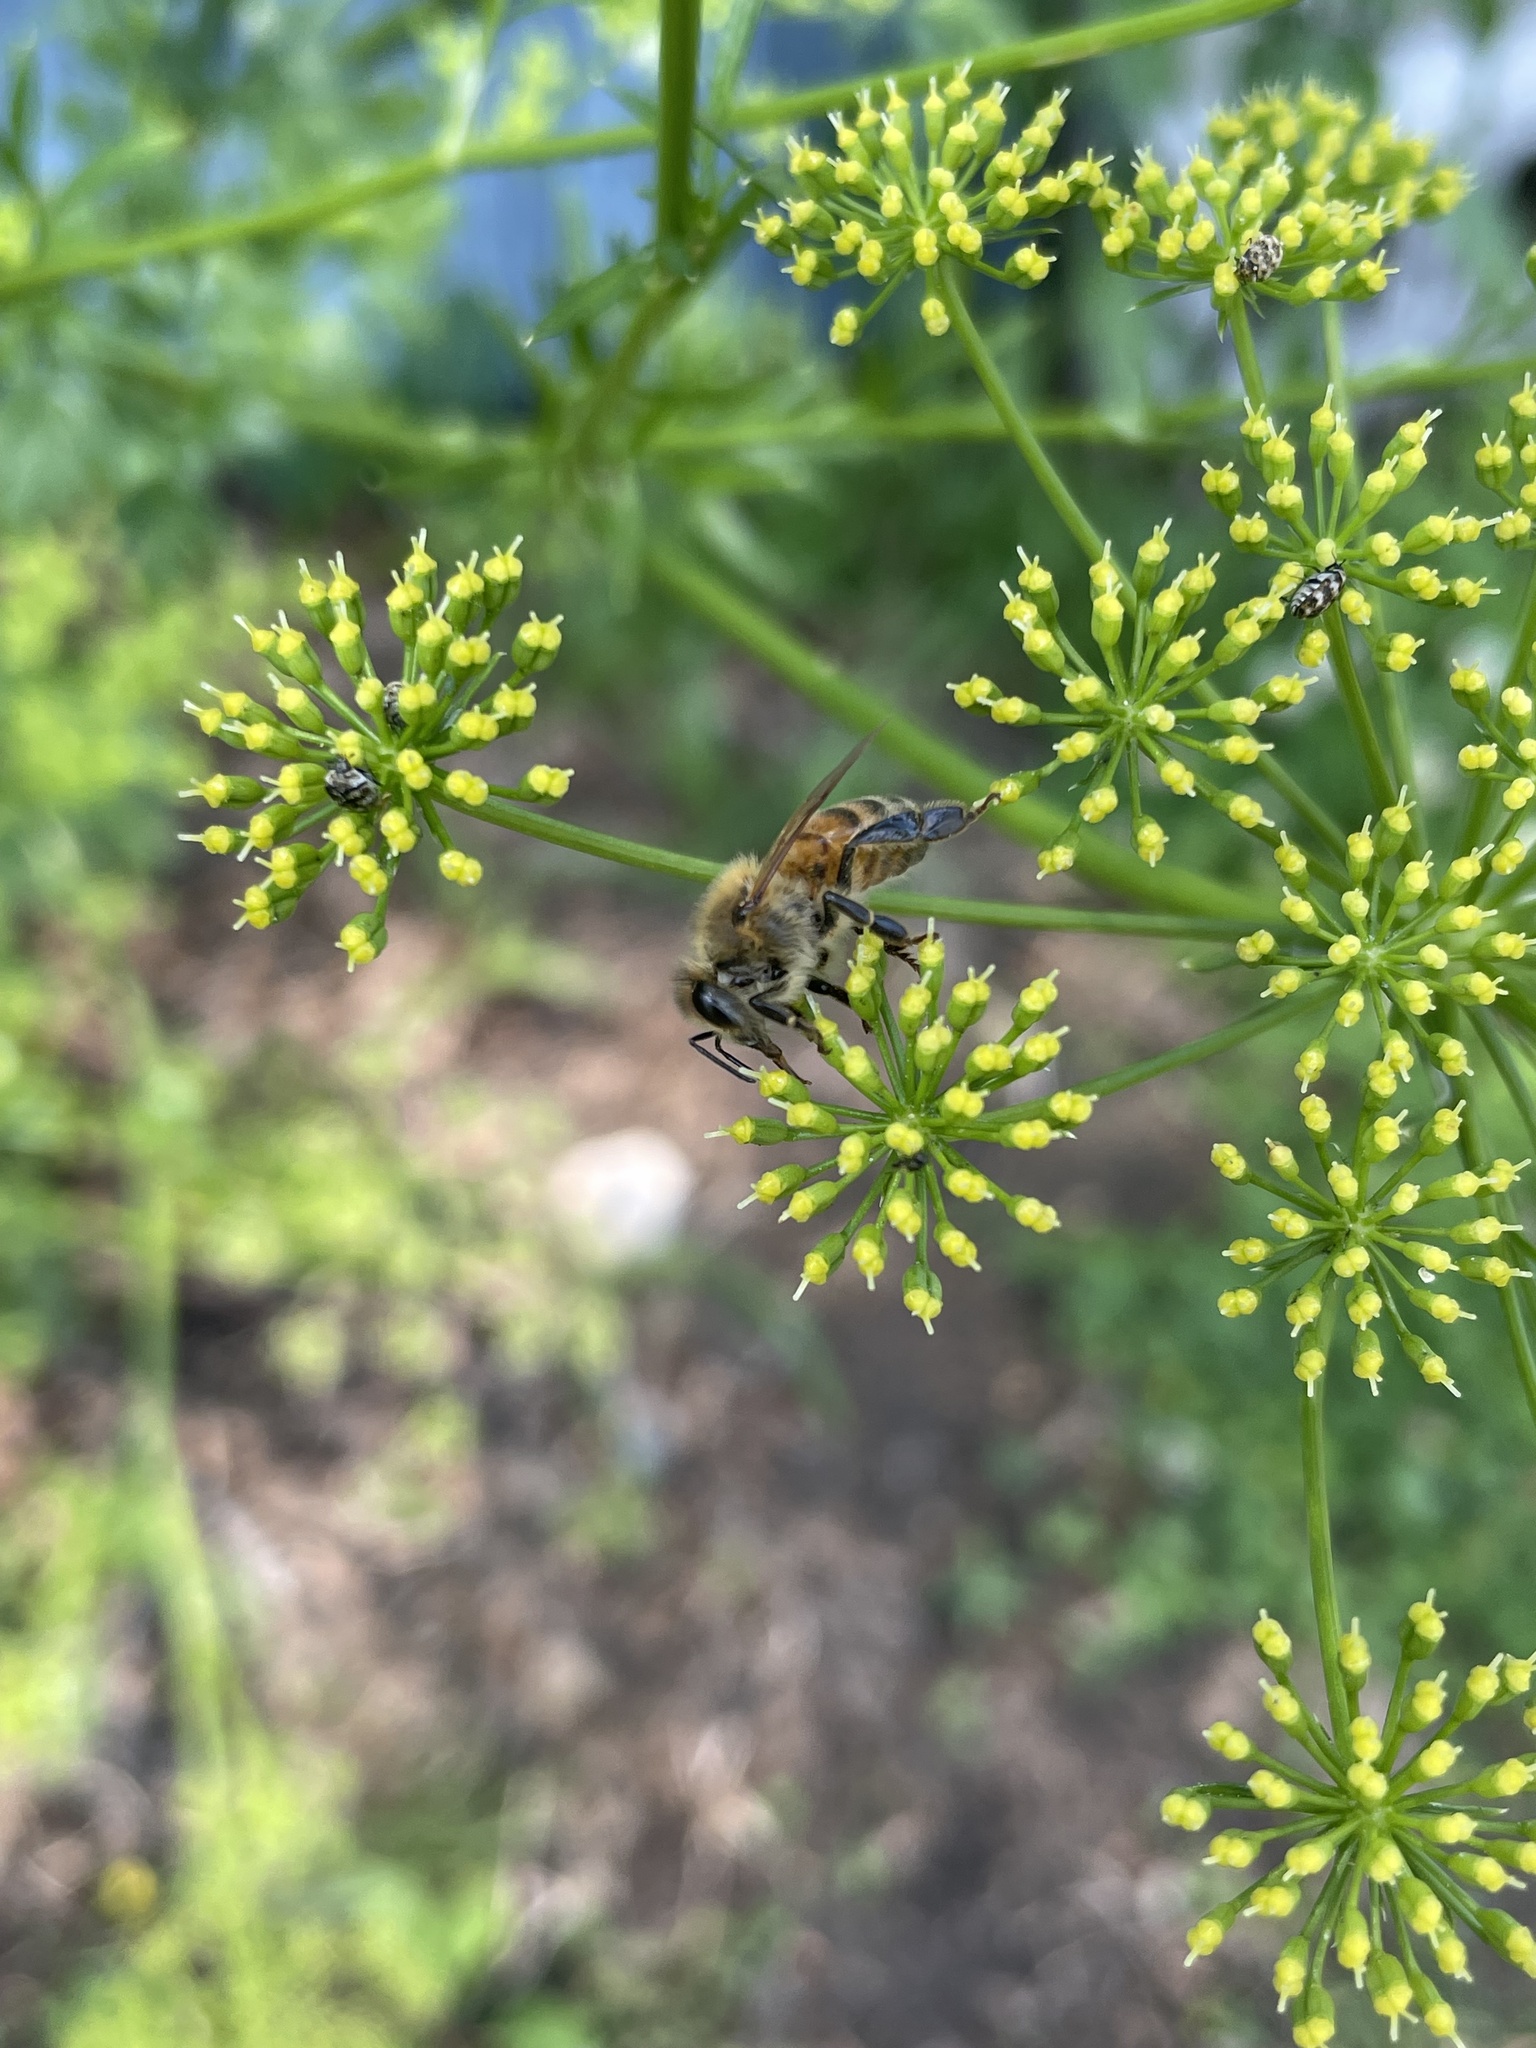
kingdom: Animalia
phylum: Arthropoda
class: Insecta
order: Hymenoptera
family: Apidae
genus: Apis
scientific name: Apis mellifera
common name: Honey bee
